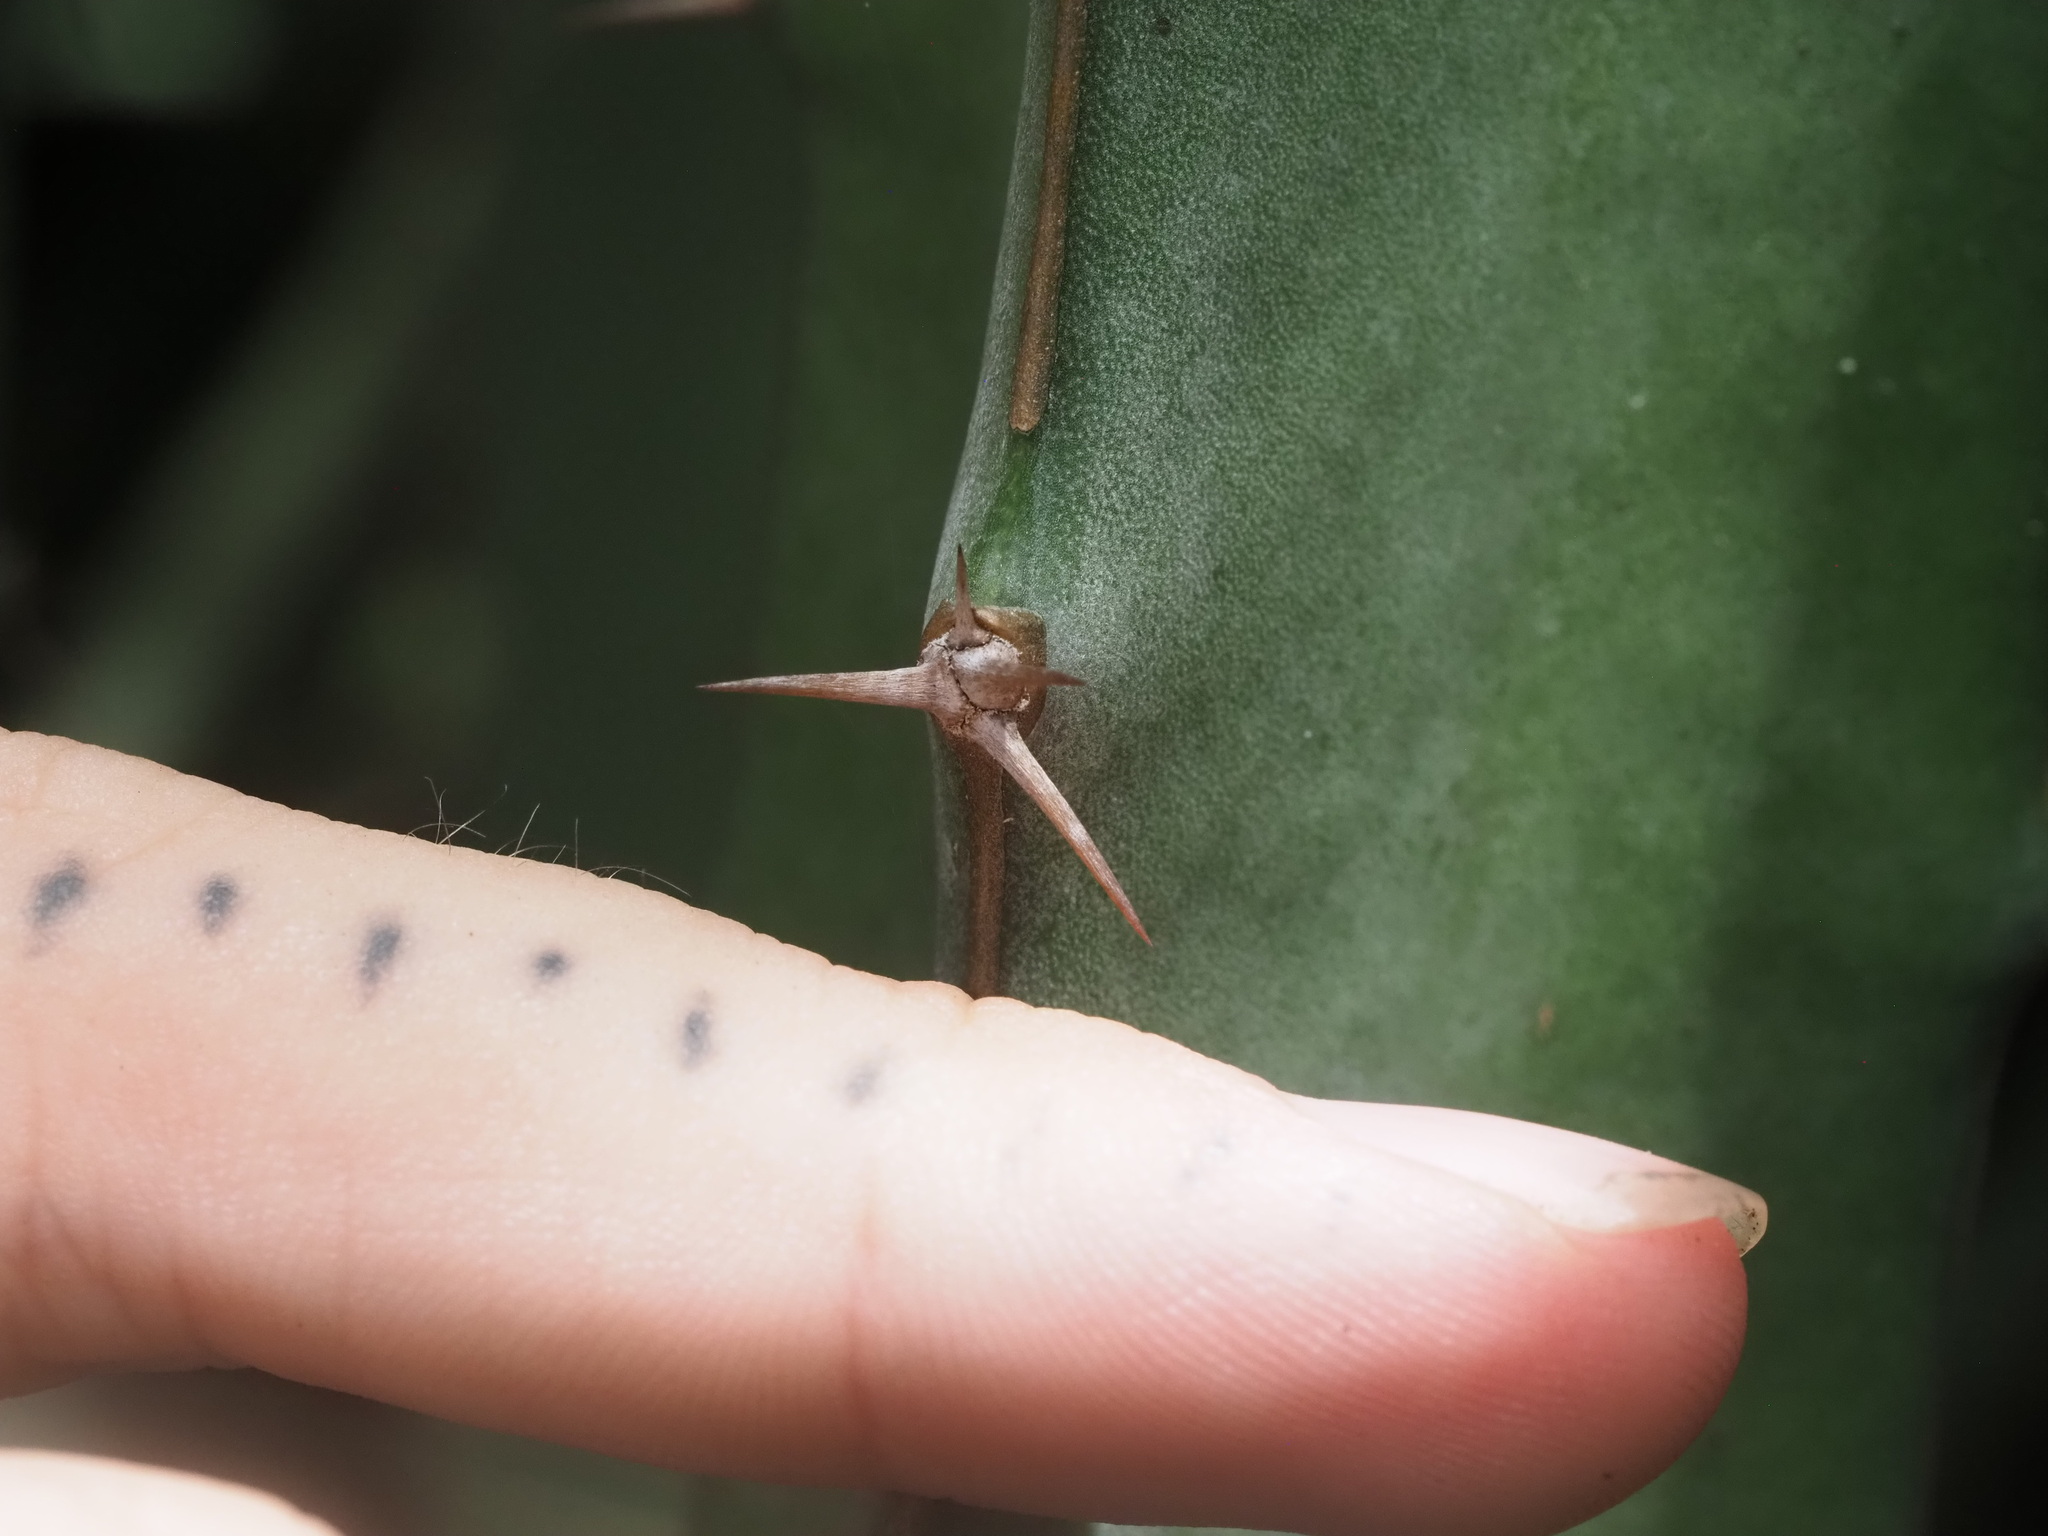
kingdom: Plantae
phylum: Tracheophyta
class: Magnoliopsida
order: Caryophyllales
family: Cactaceae
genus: Selenicereus
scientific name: Selenicereus ocamponis
